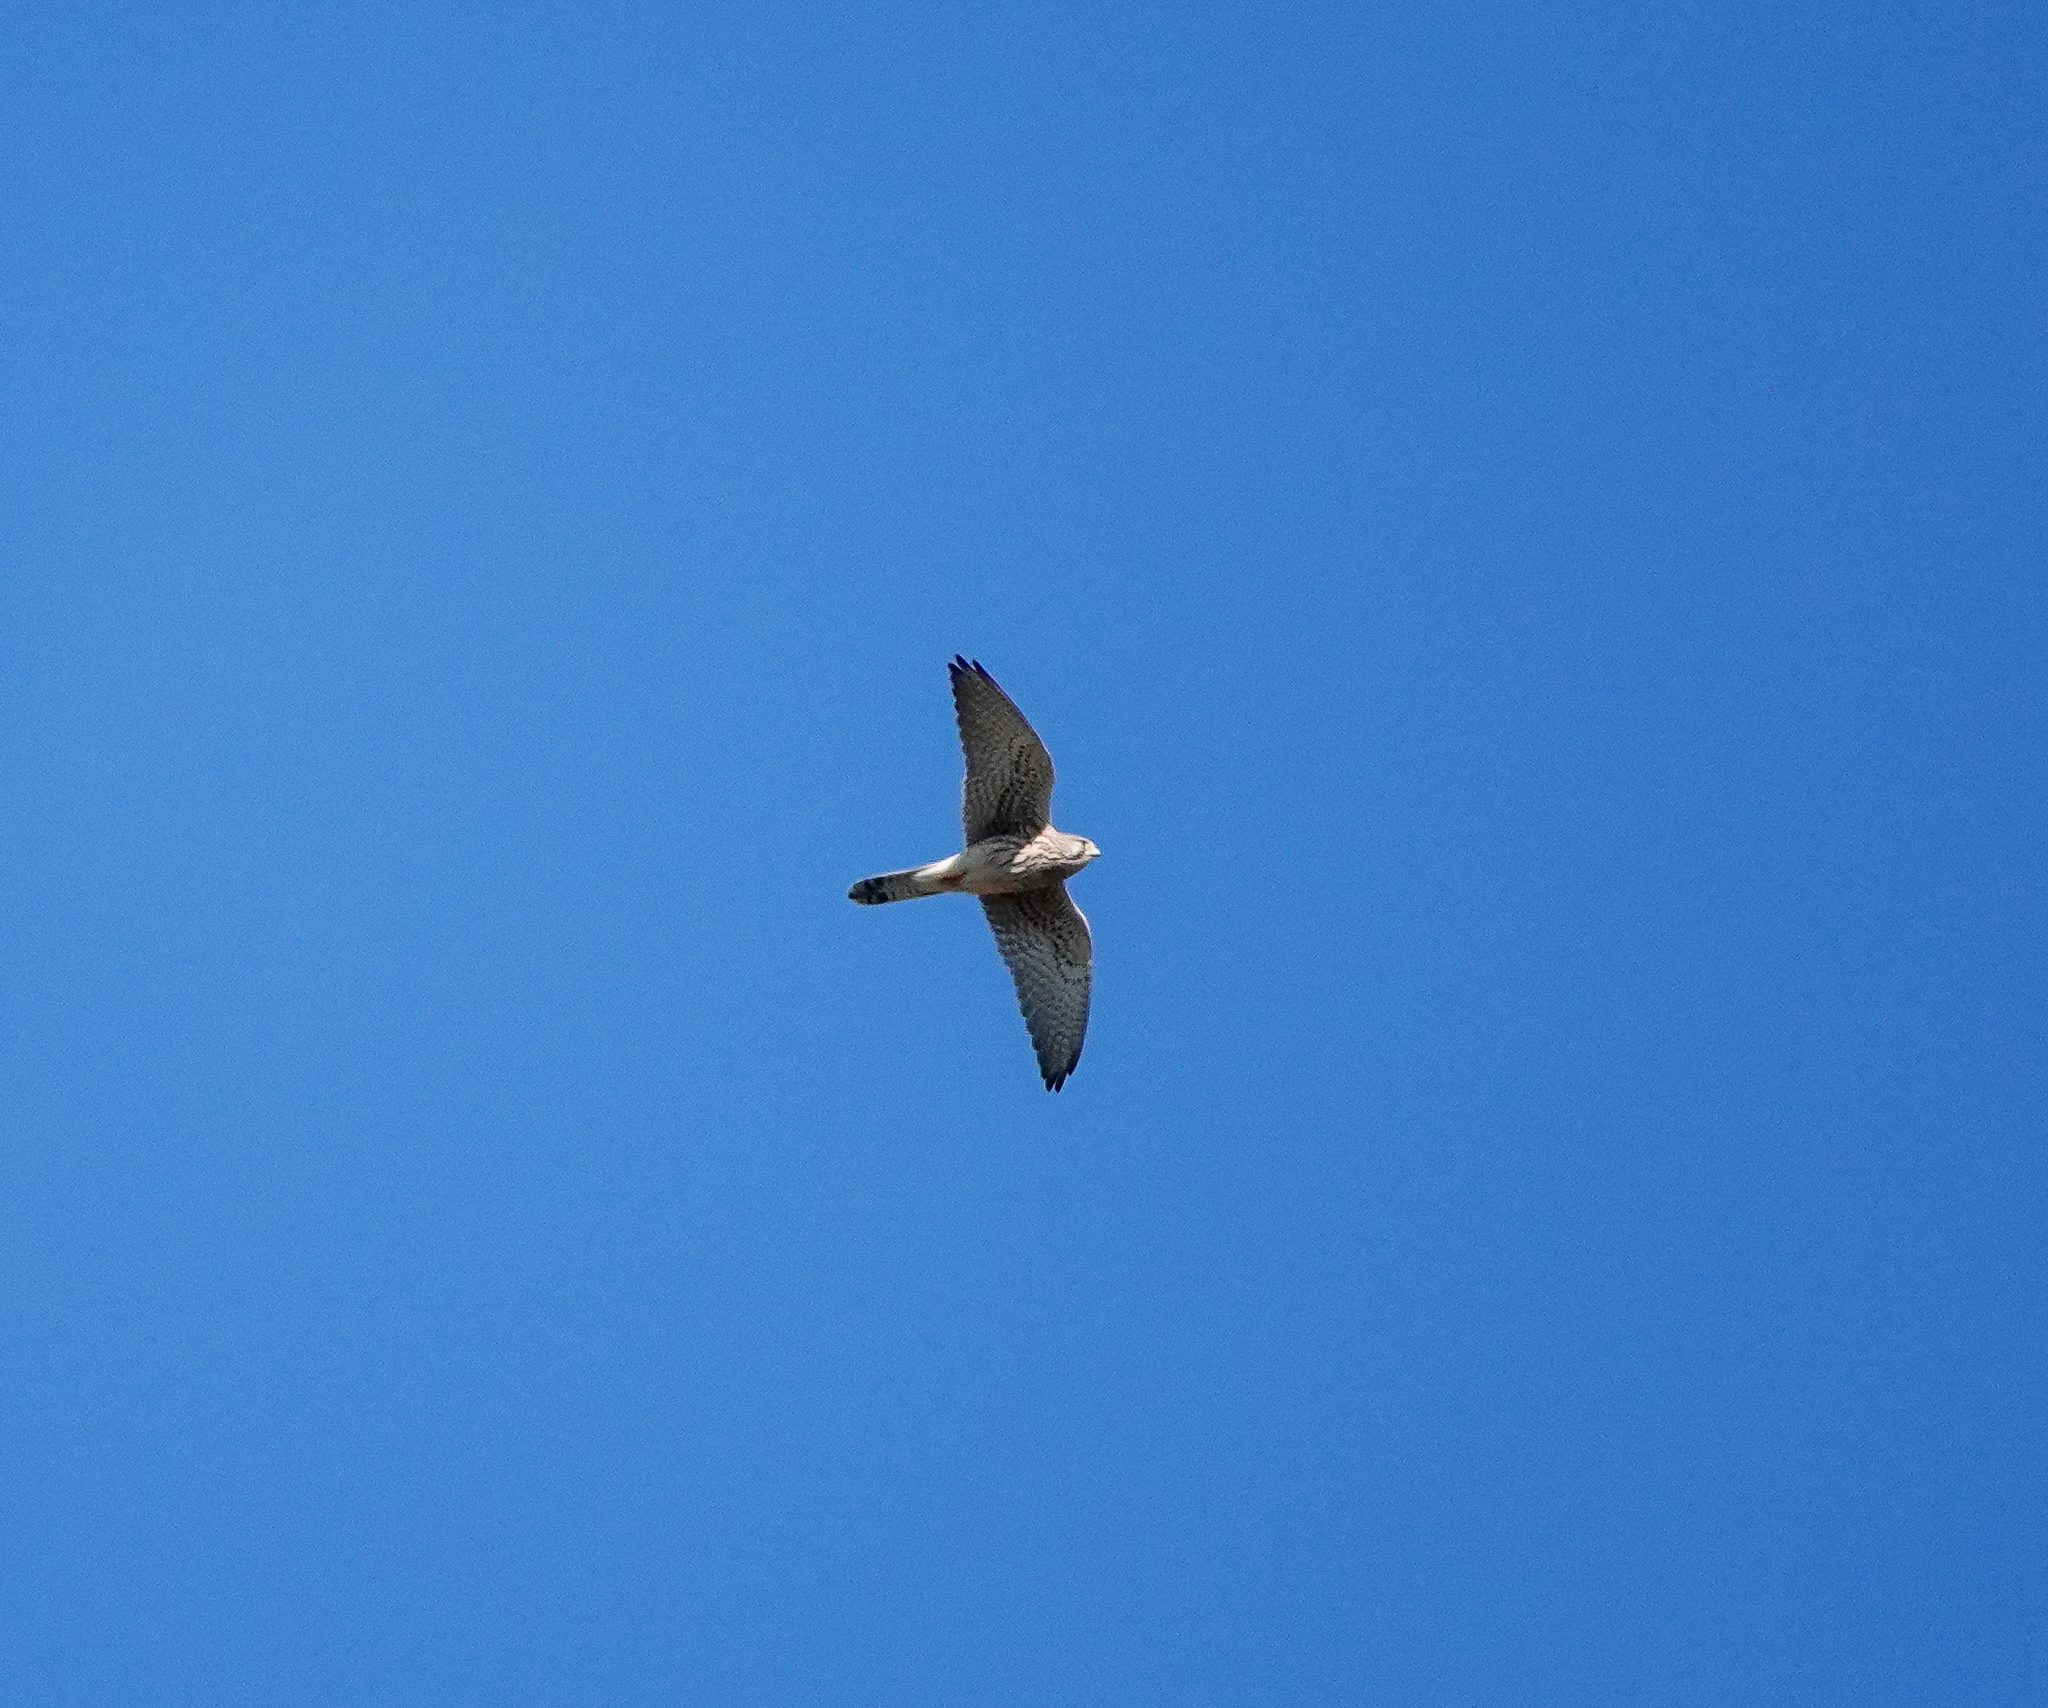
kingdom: Animalia
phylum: Chordata
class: Aves
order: Falconiformes
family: Falconidae
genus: Falco
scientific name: Falco tinnunculus
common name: Common kestrel
